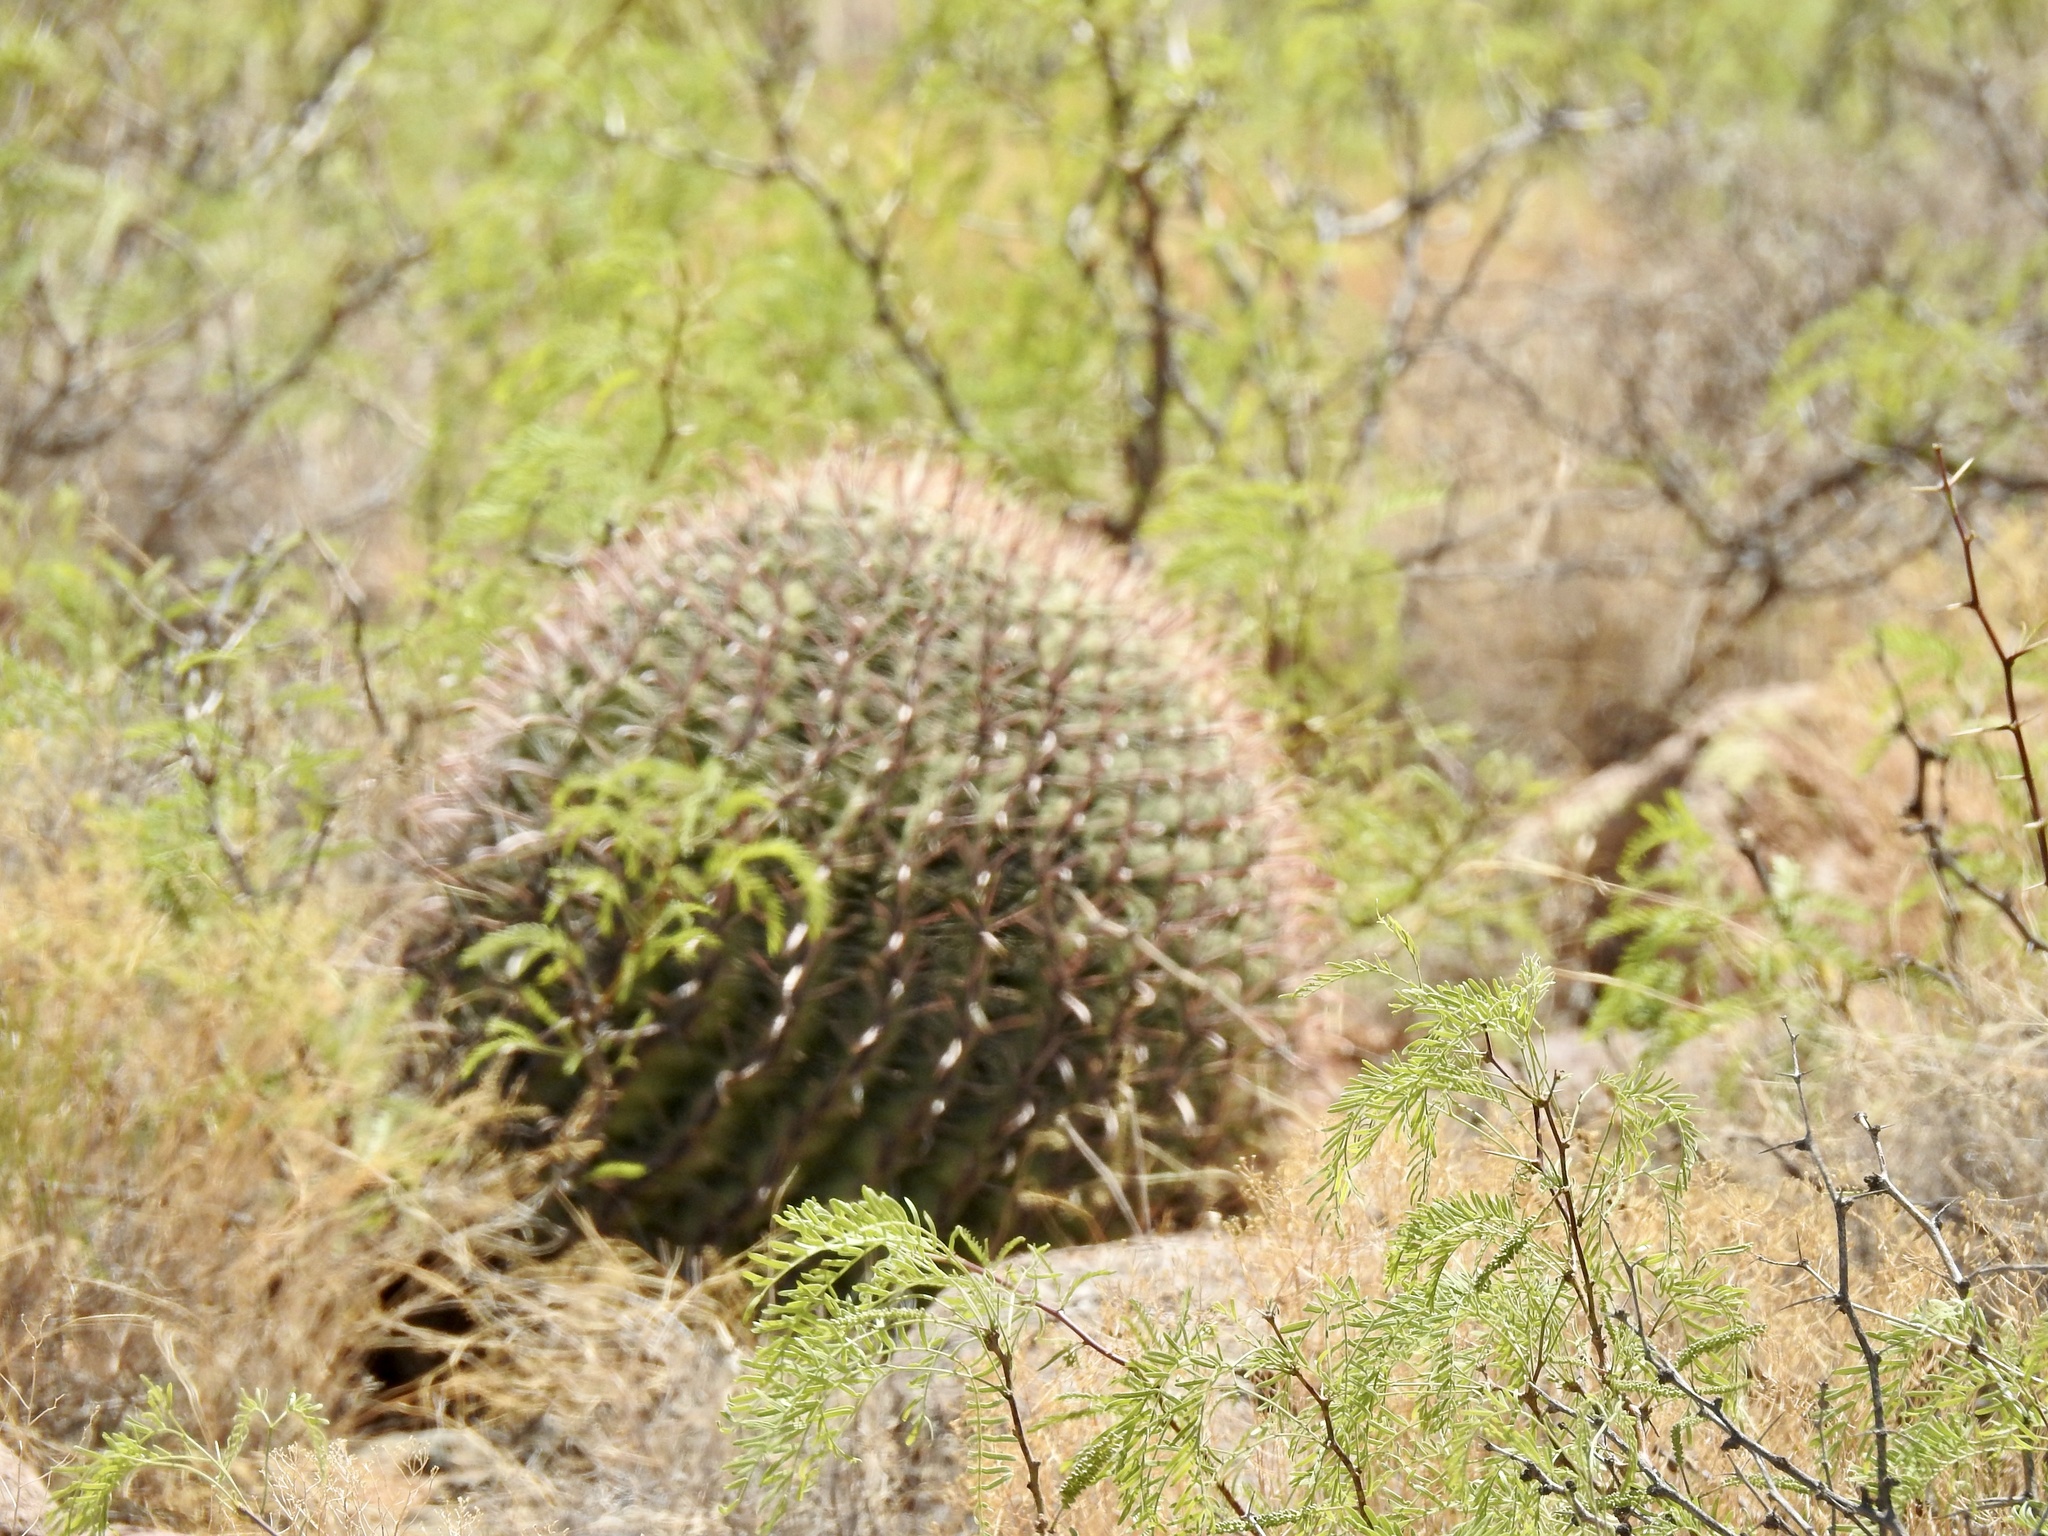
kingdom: Plantae
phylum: Tracheophyta
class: Magnoliopsida
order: Caryophyllales
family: Cactaceae
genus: Ferocactus
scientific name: Ferocactus wislizeni
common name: Candy barrel cactus
